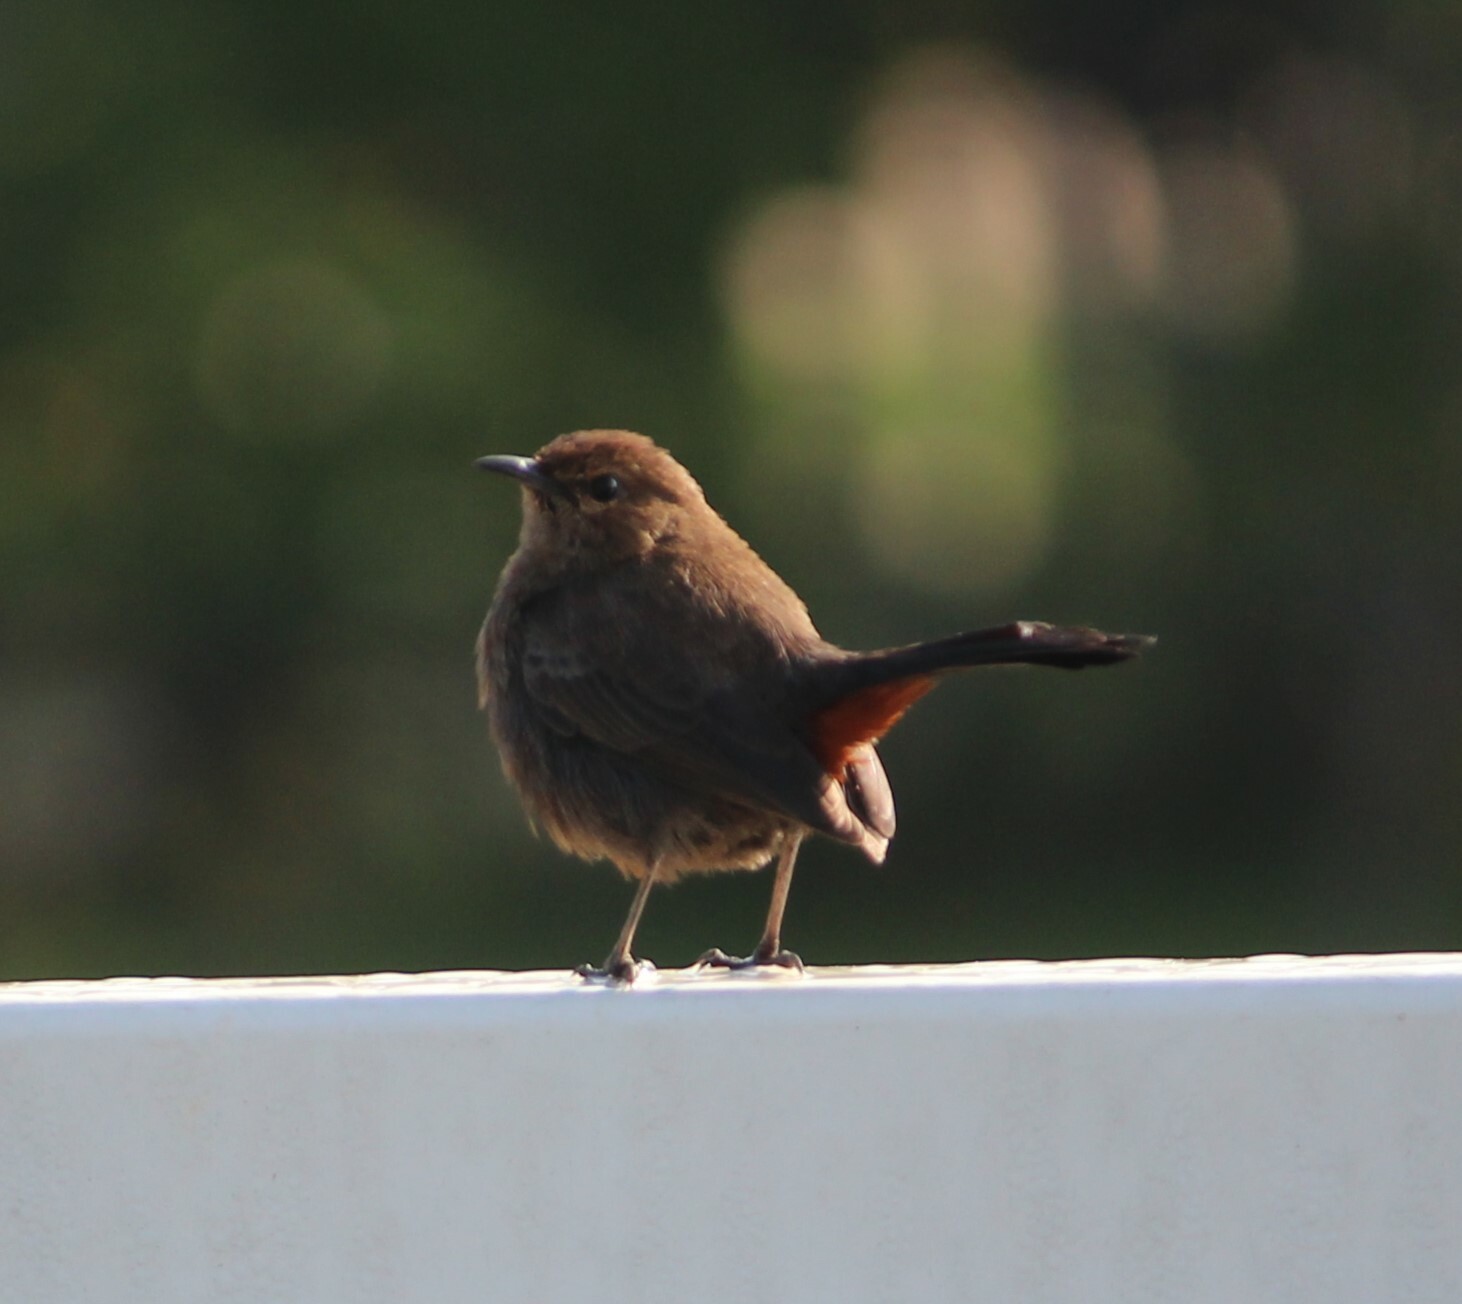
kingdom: Animalia
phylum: Chordata
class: Aves
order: Passeriformes
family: Muscicapidae
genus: Saxicoloides
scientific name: Saxicoloides fulicatus
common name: Indian robin
